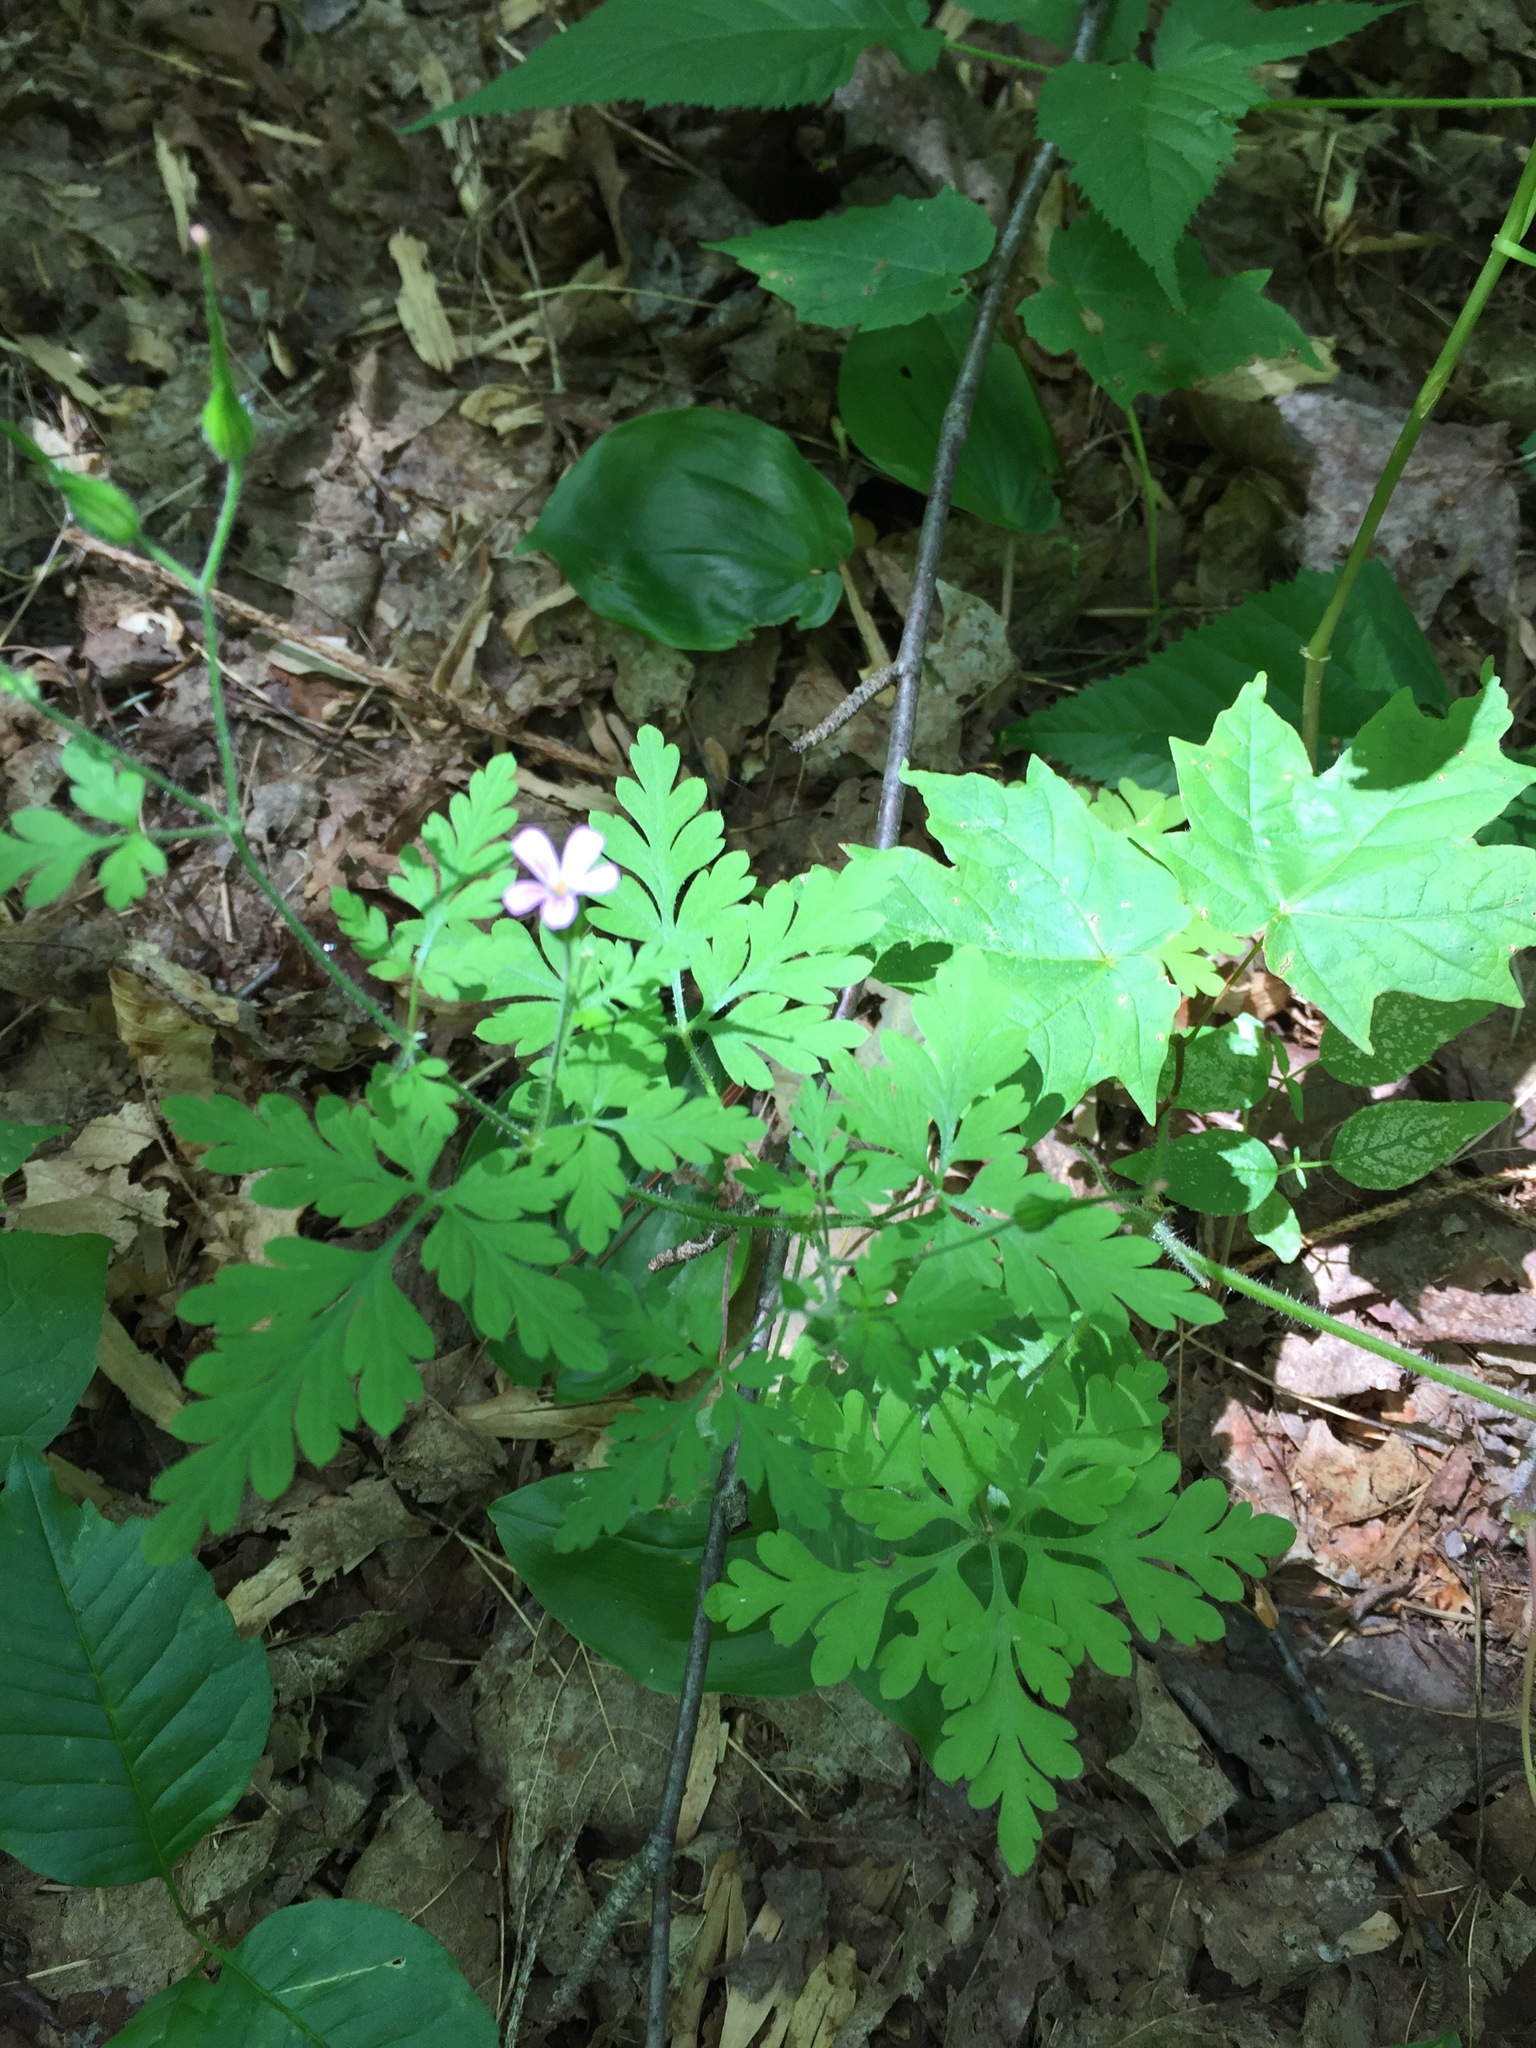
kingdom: Plantae
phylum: Tracheophyta
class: Magnoliopsida
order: Geraniales
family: Geraniaceae
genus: Geranium
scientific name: Geranium robertianum
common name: Herb-robert
